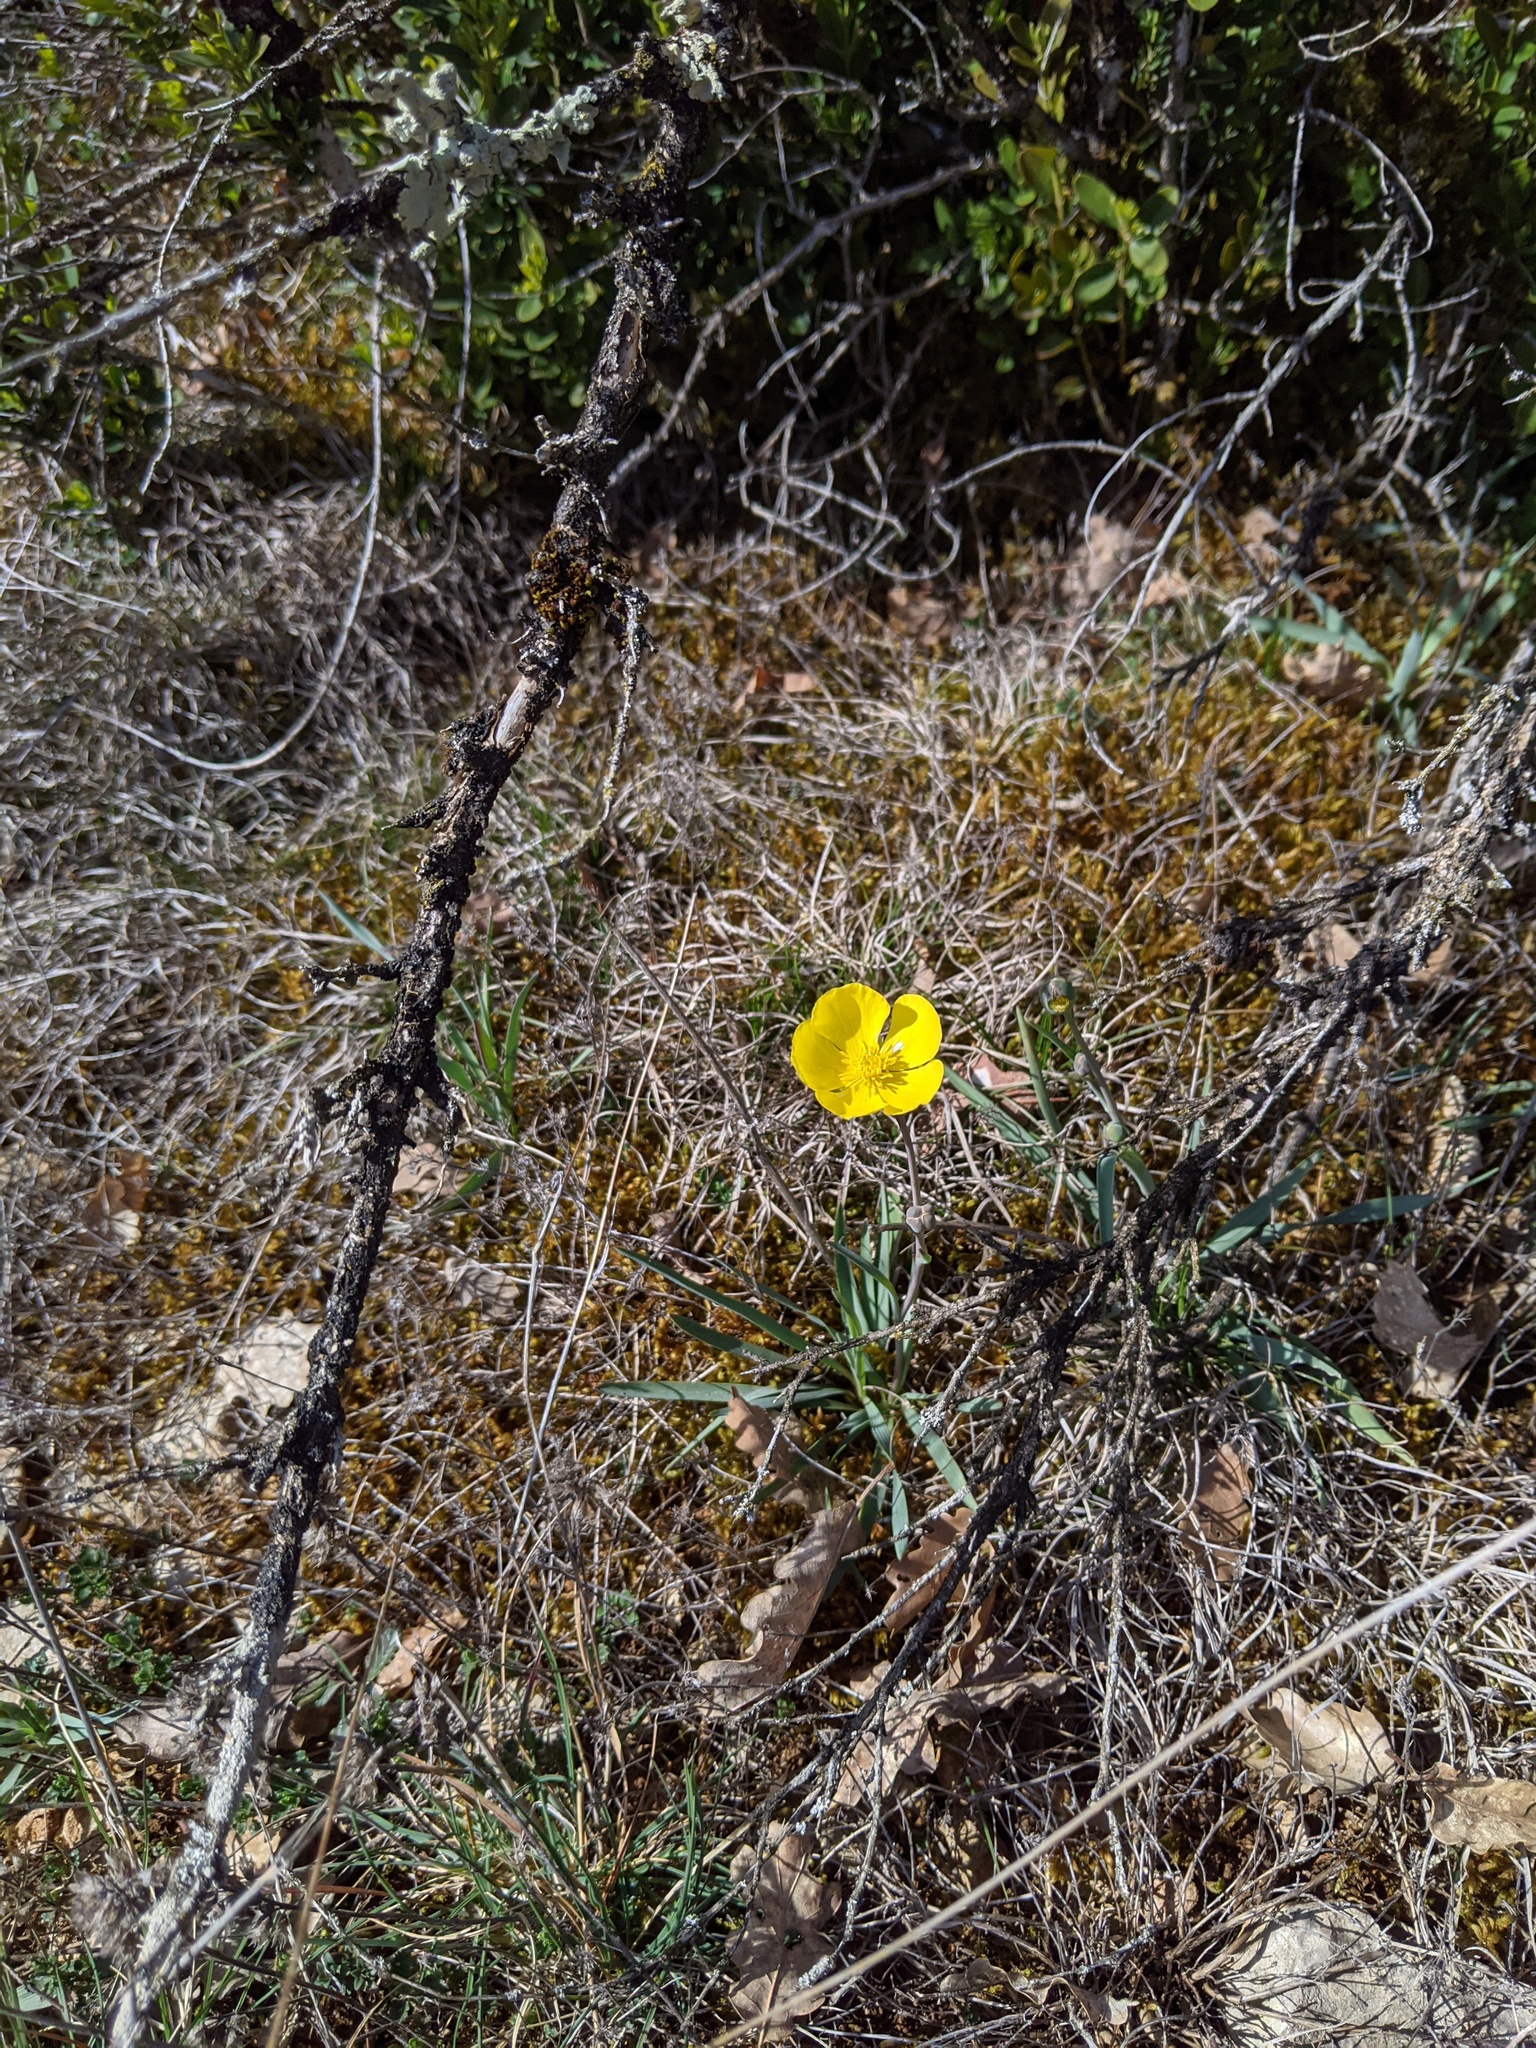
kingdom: Plantae
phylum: Tracheophyta
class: Magnoliopsida
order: Ranunculales
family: Ranunculaceae
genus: Ranunculus
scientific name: Ranunculus gramineus
